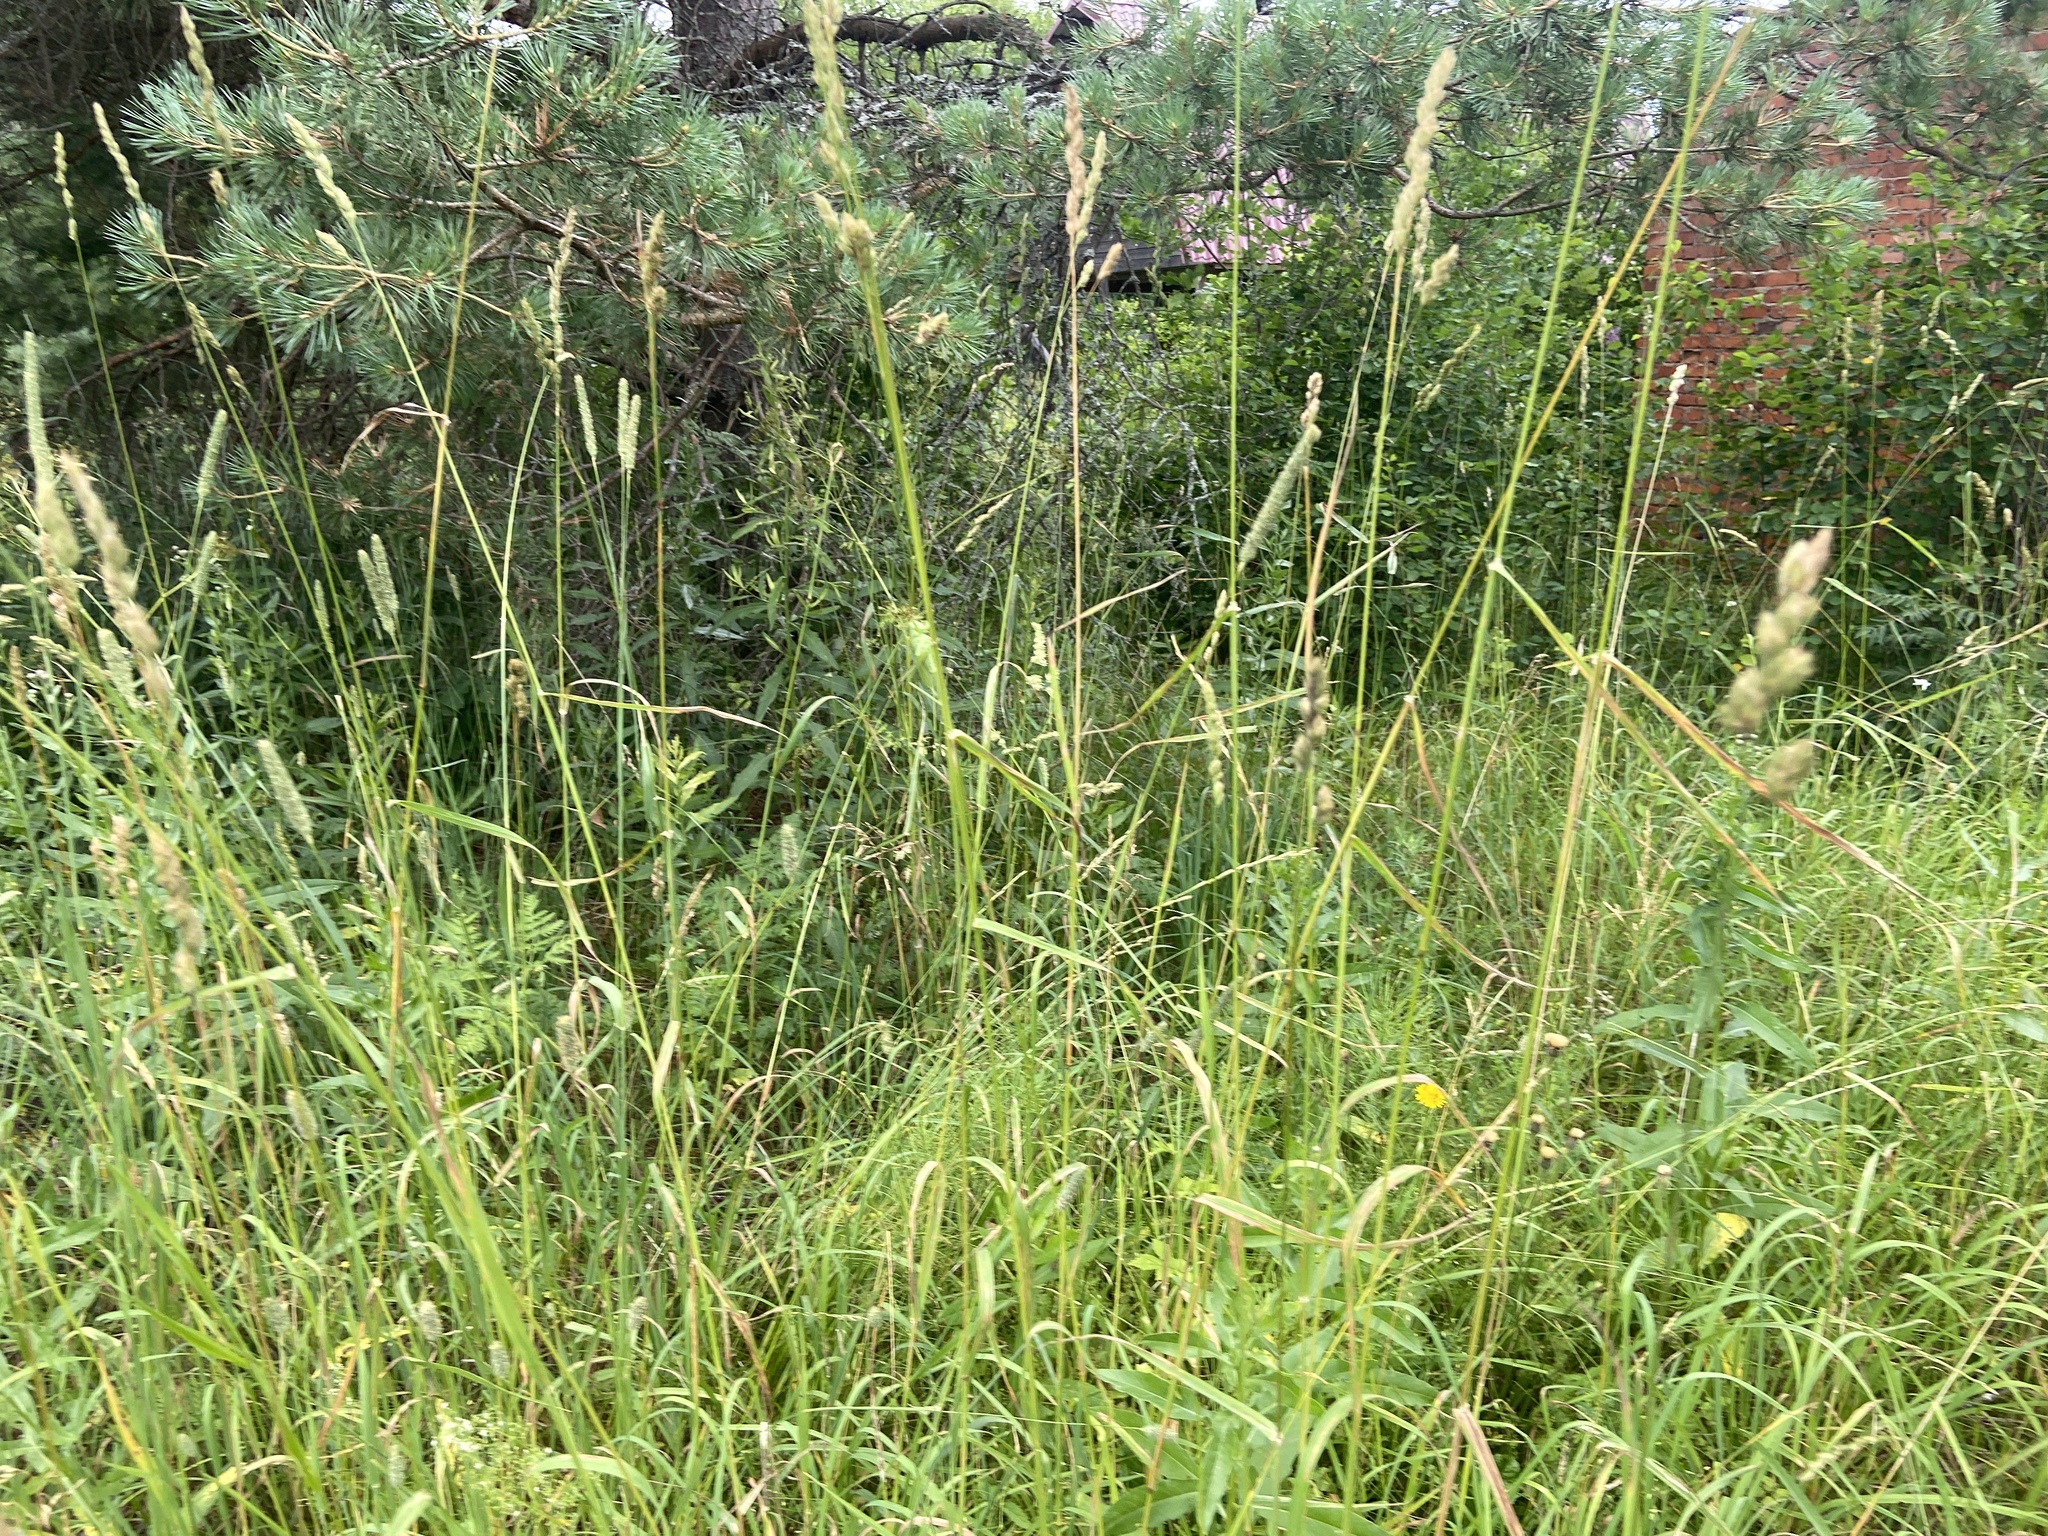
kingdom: Plantae
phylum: Tracheophyta
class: Liliopsida
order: Poales
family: Poaceae
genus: Dactylis
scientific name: Dactylis glomerata
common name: Orchardgrass
